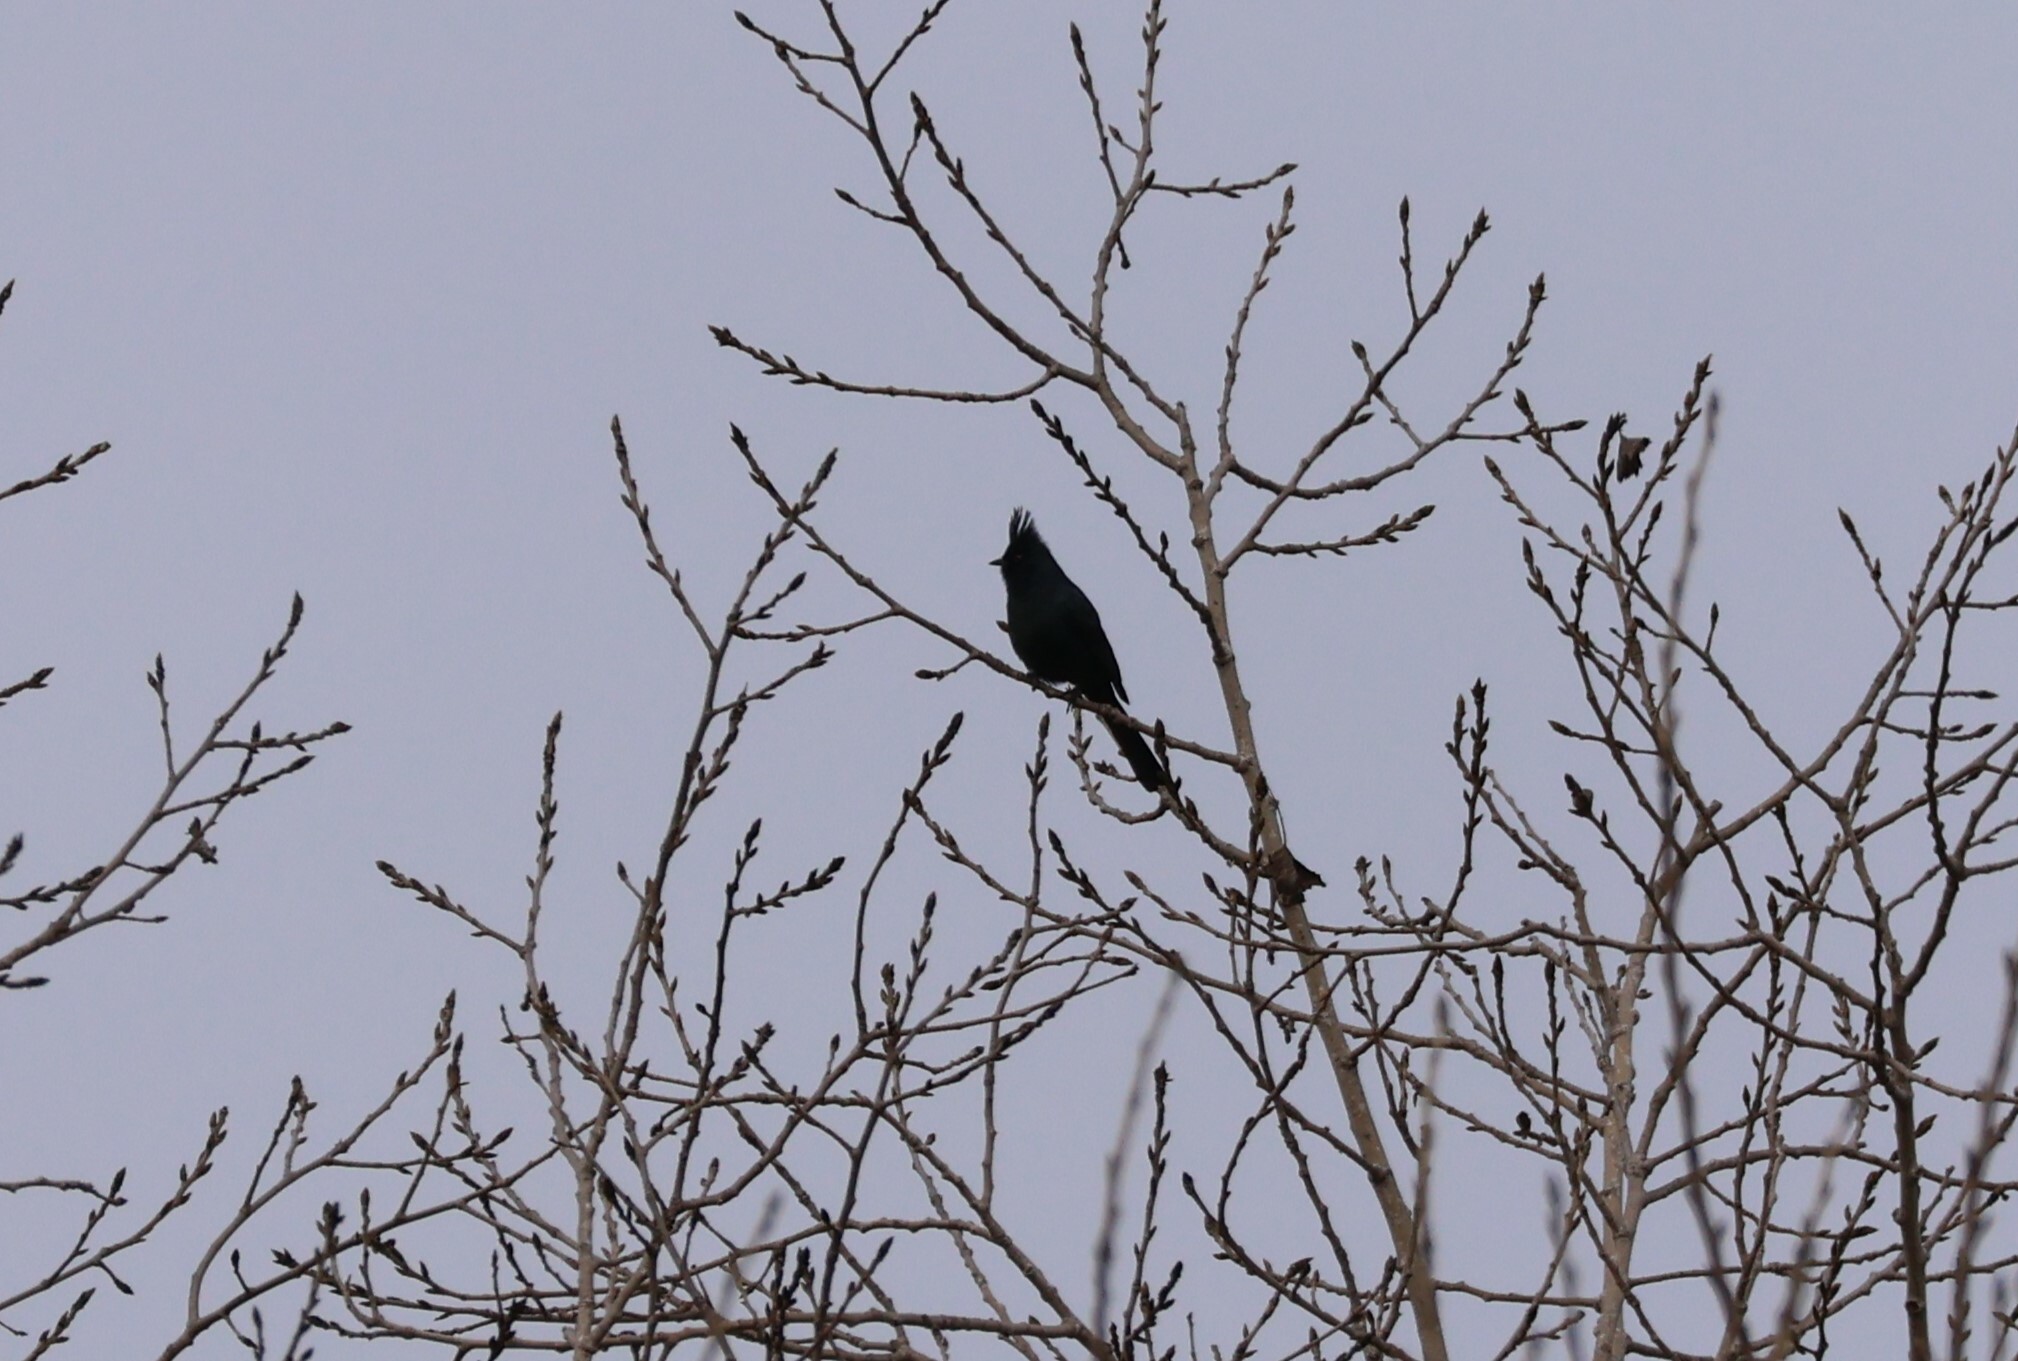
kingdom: Animalia
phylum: Chordata
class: Aves
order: Passeriformes
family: Ptilogonatidae
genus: Phainopepla
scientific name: Phainopepla nitens
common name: Phainopepla
